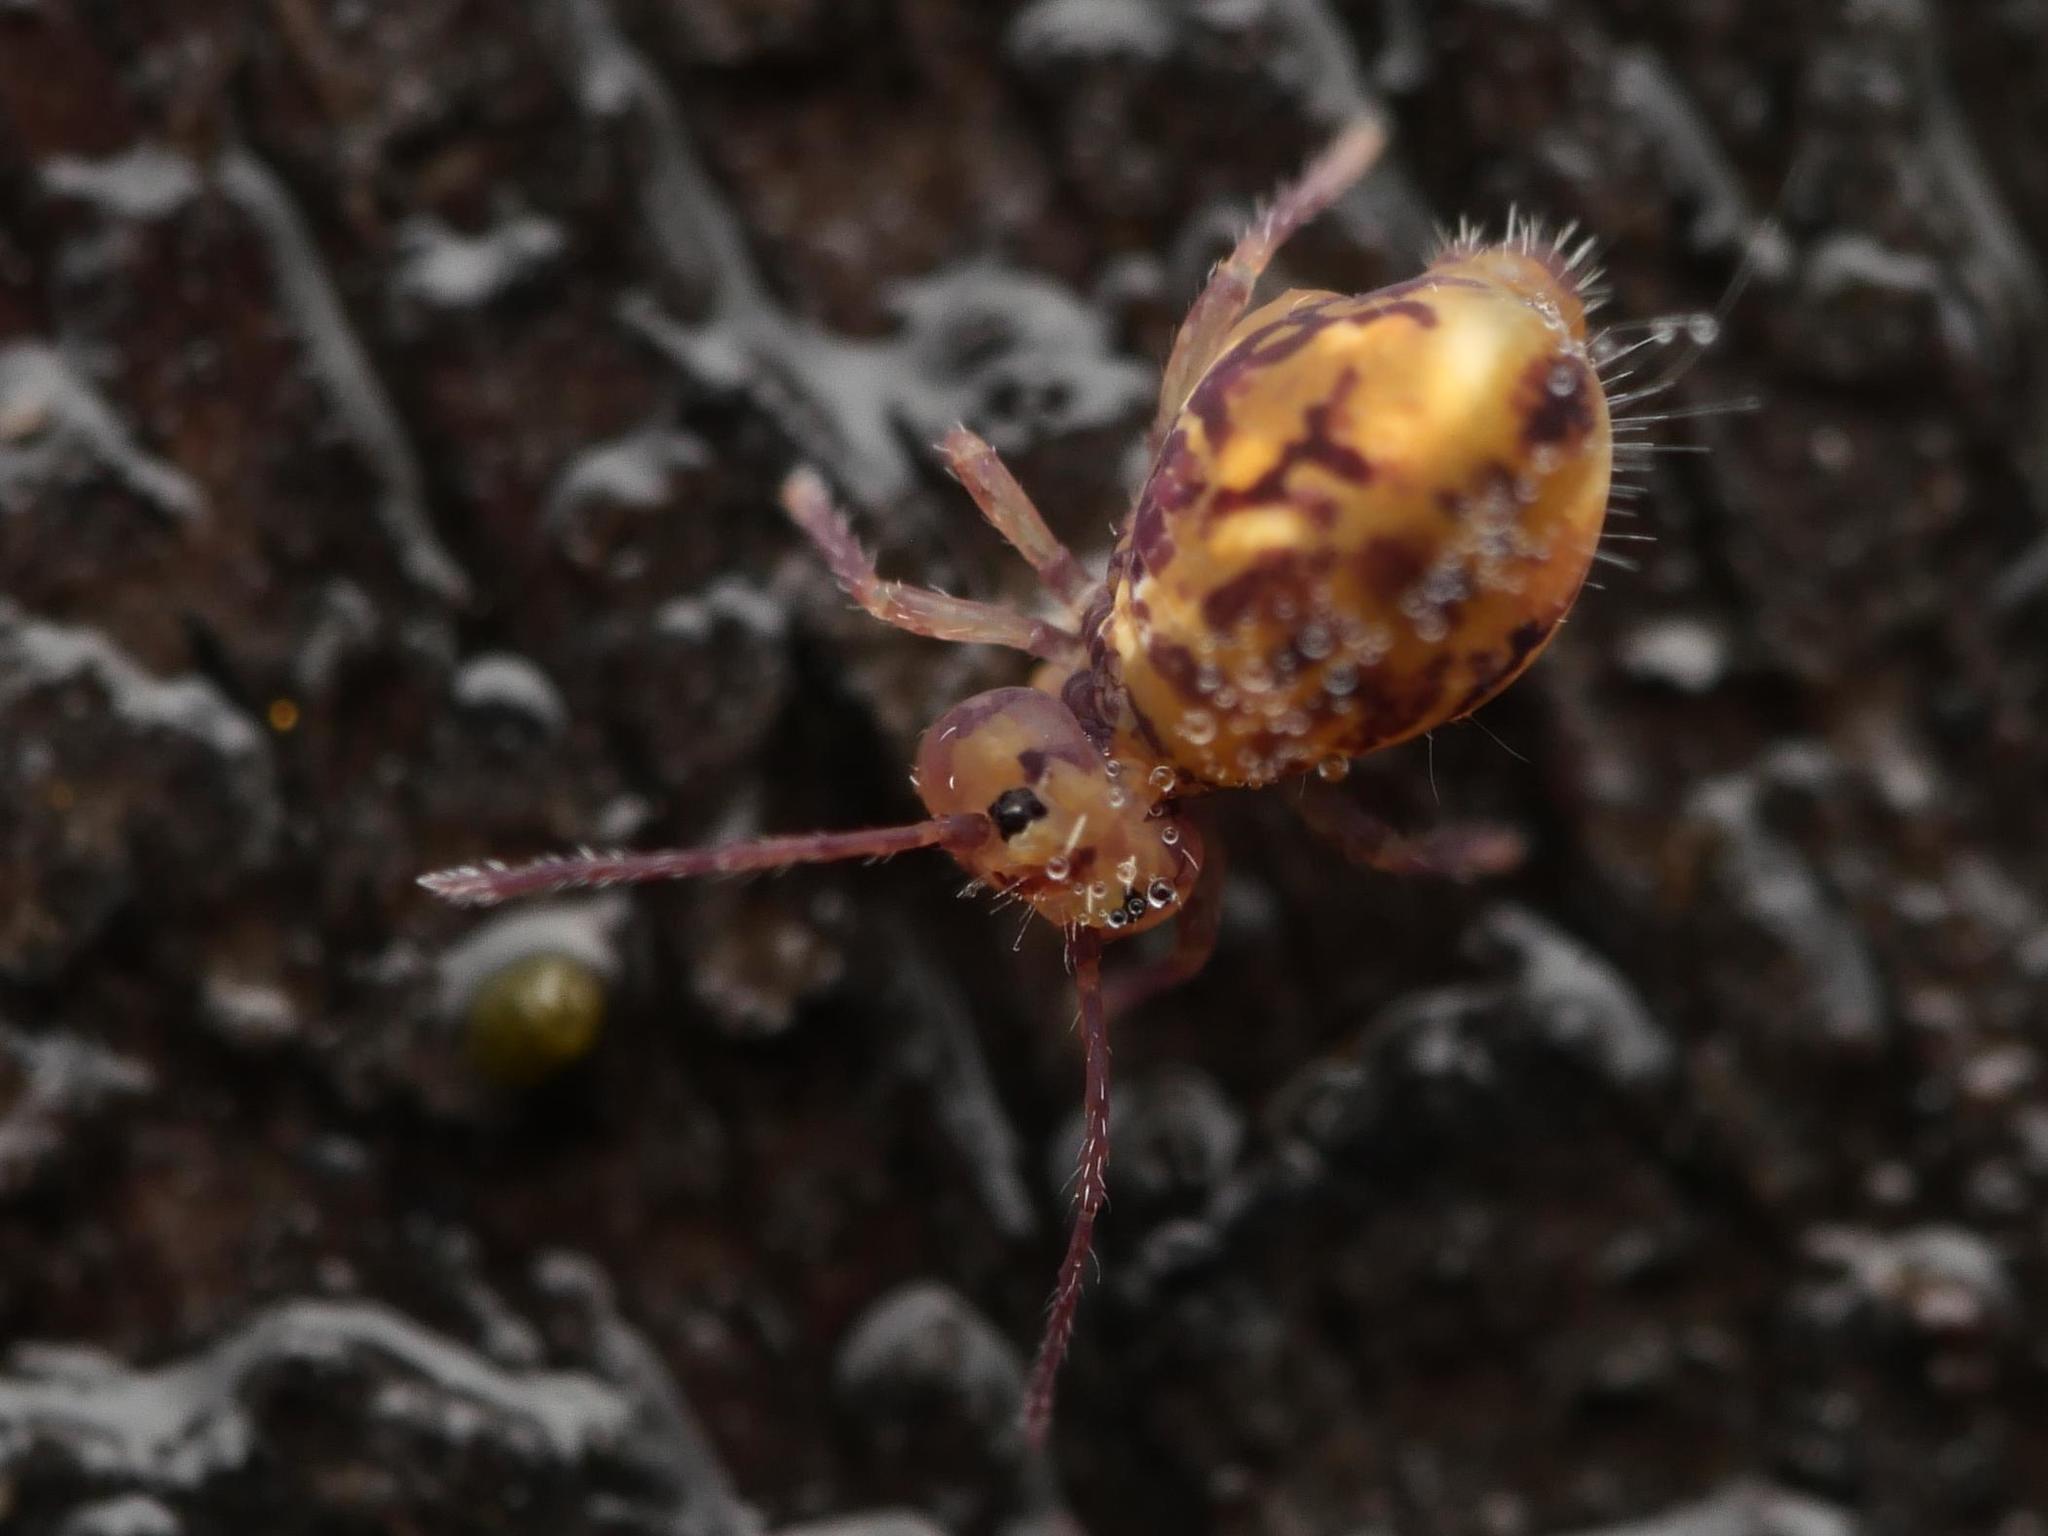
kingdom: Animalia
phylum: Arthropoda
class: Collembola
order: Symphypleona
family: Dicyrtomidae
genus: Dicyrtomina
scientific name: Dicyrtomina ornata
